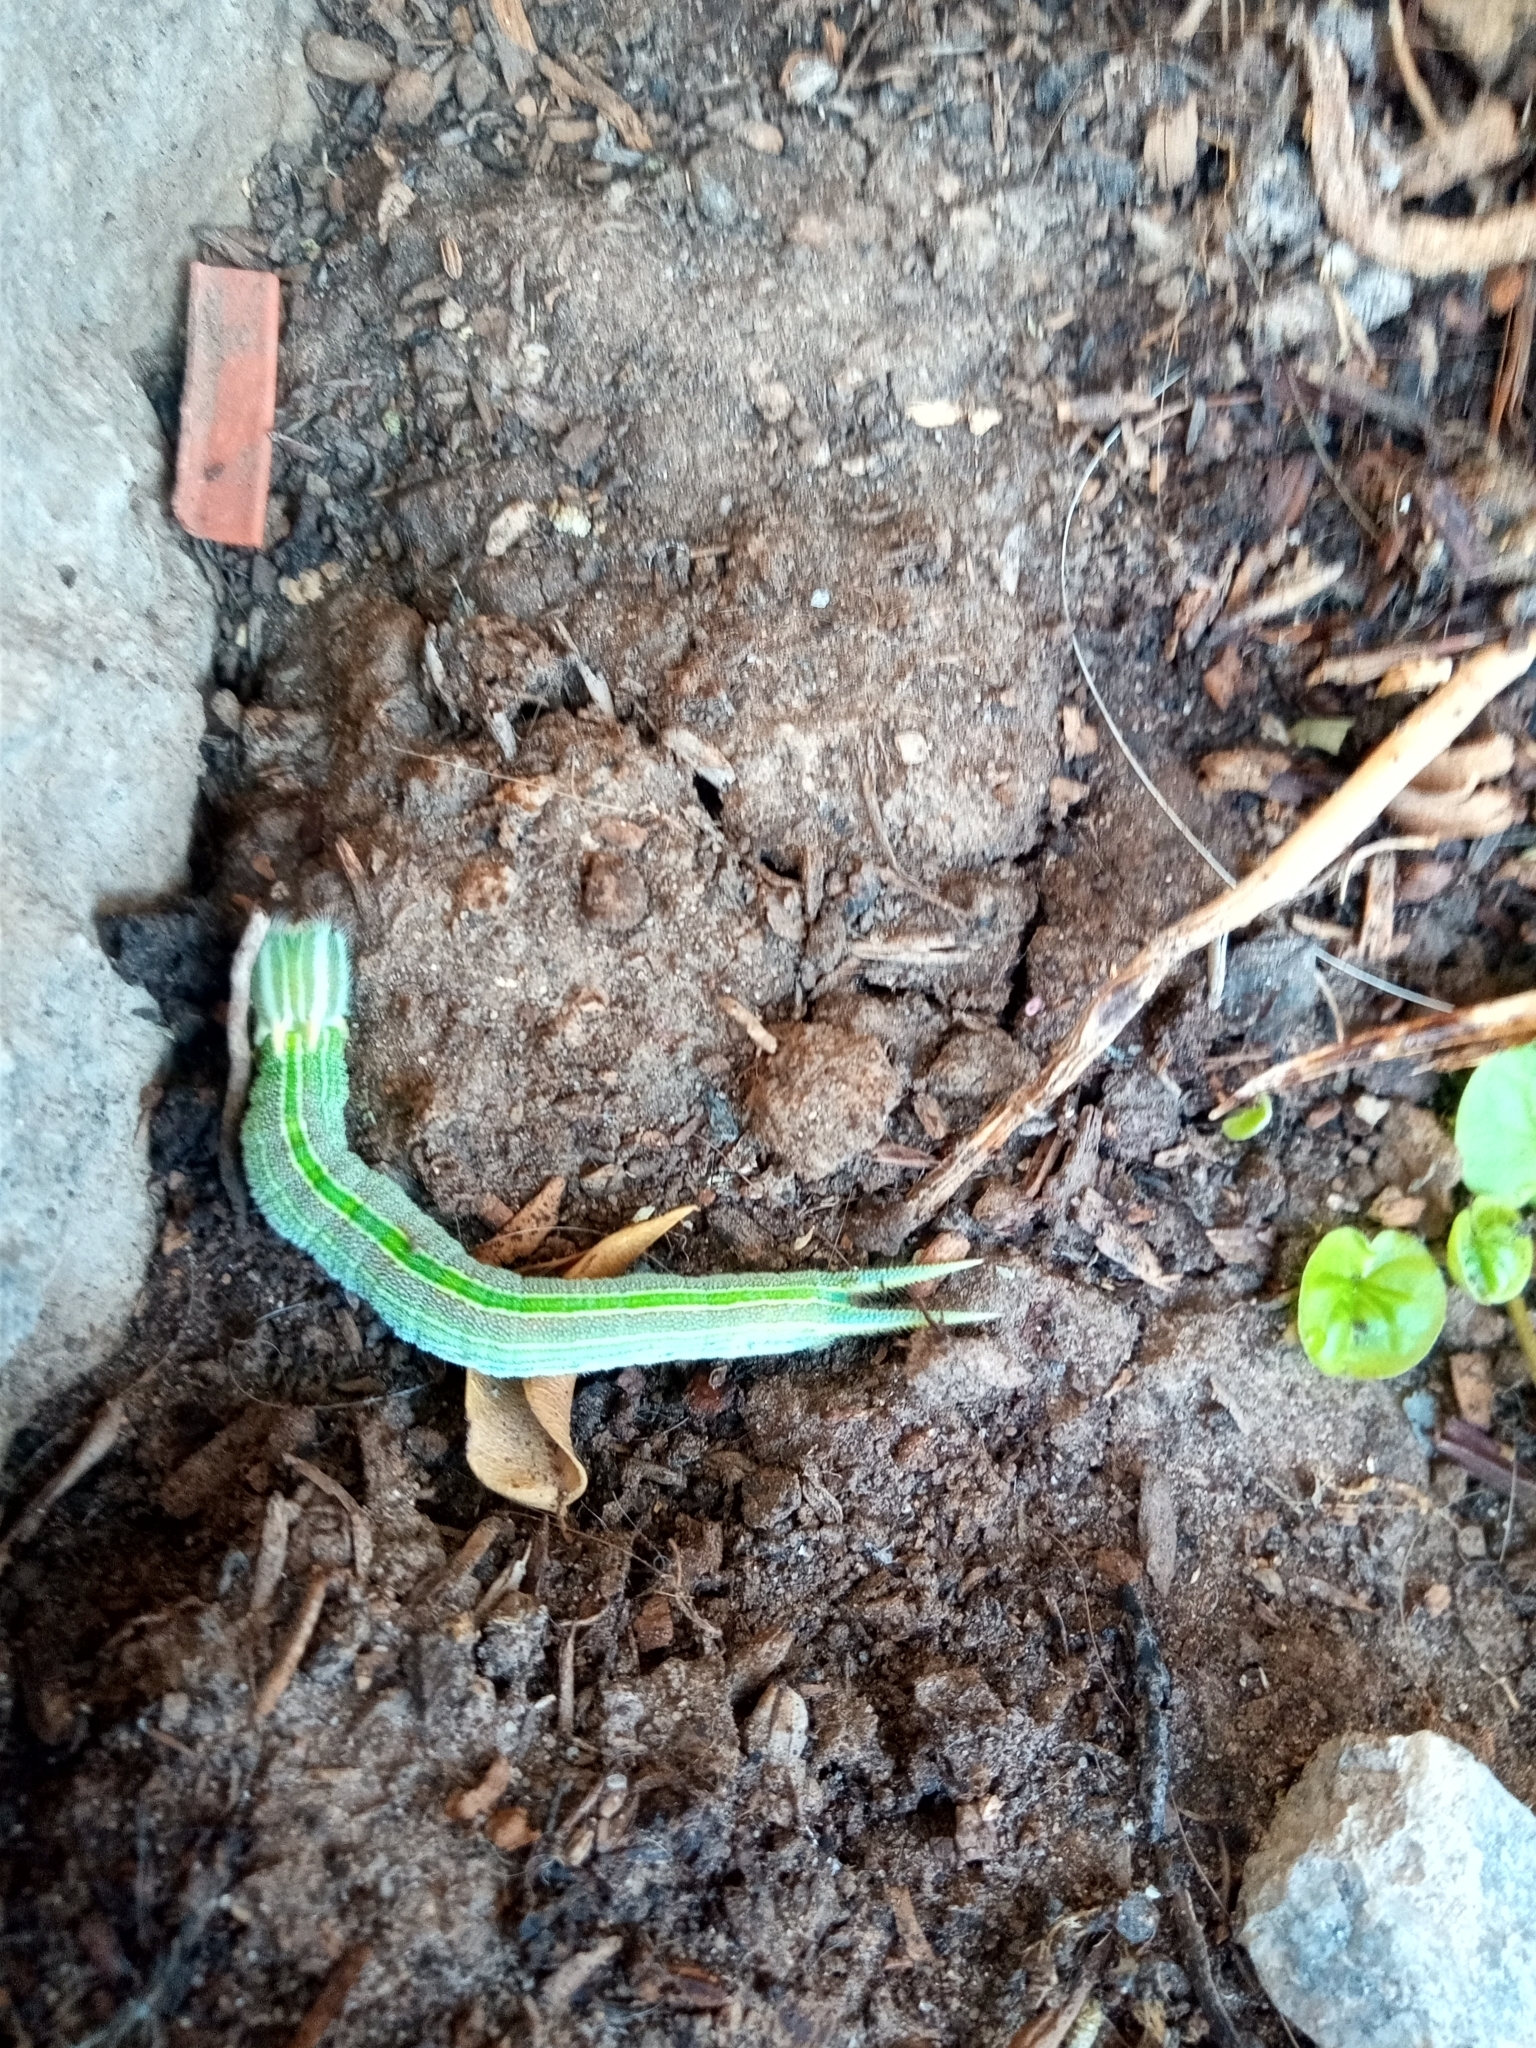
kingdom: Animalia
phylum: Arthropoda
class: Insecta
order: Lepidoptera
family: Nymphalidae
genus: Opsiphanes
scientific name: Opsiphanes invirae
